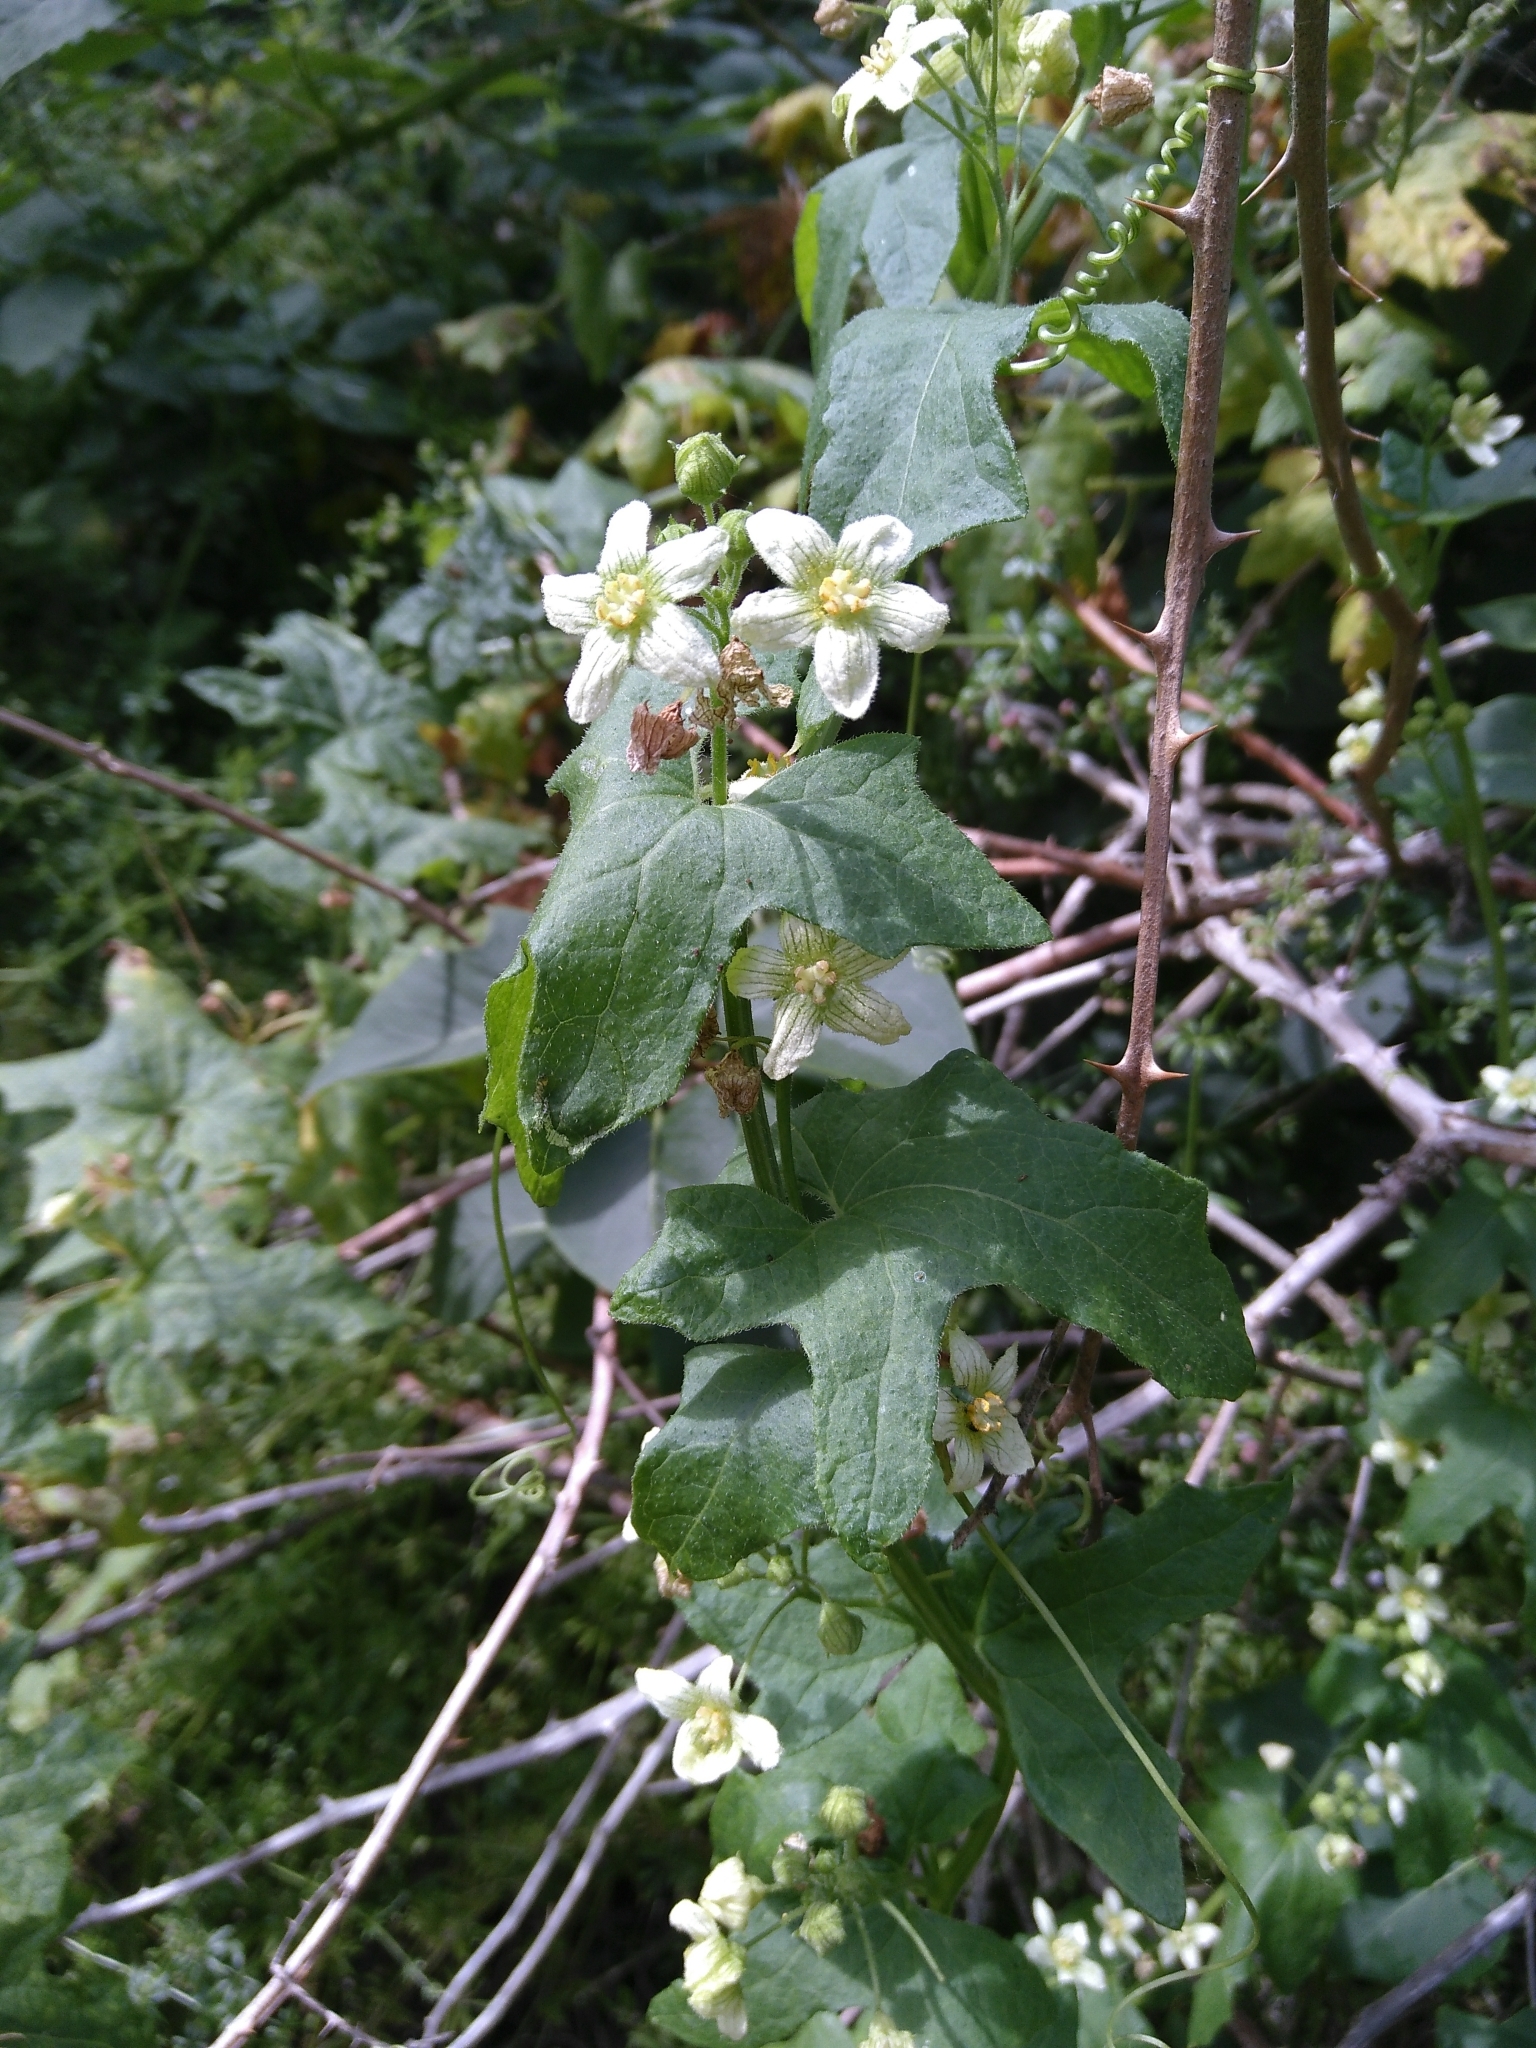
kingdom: Plantae
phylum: Tracheophyta
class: Magnoliopsida
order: Cucurbitales
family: Cucurbitaceae
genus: Bryonia
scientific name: Bryonia cretica
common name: Cretan bryony
